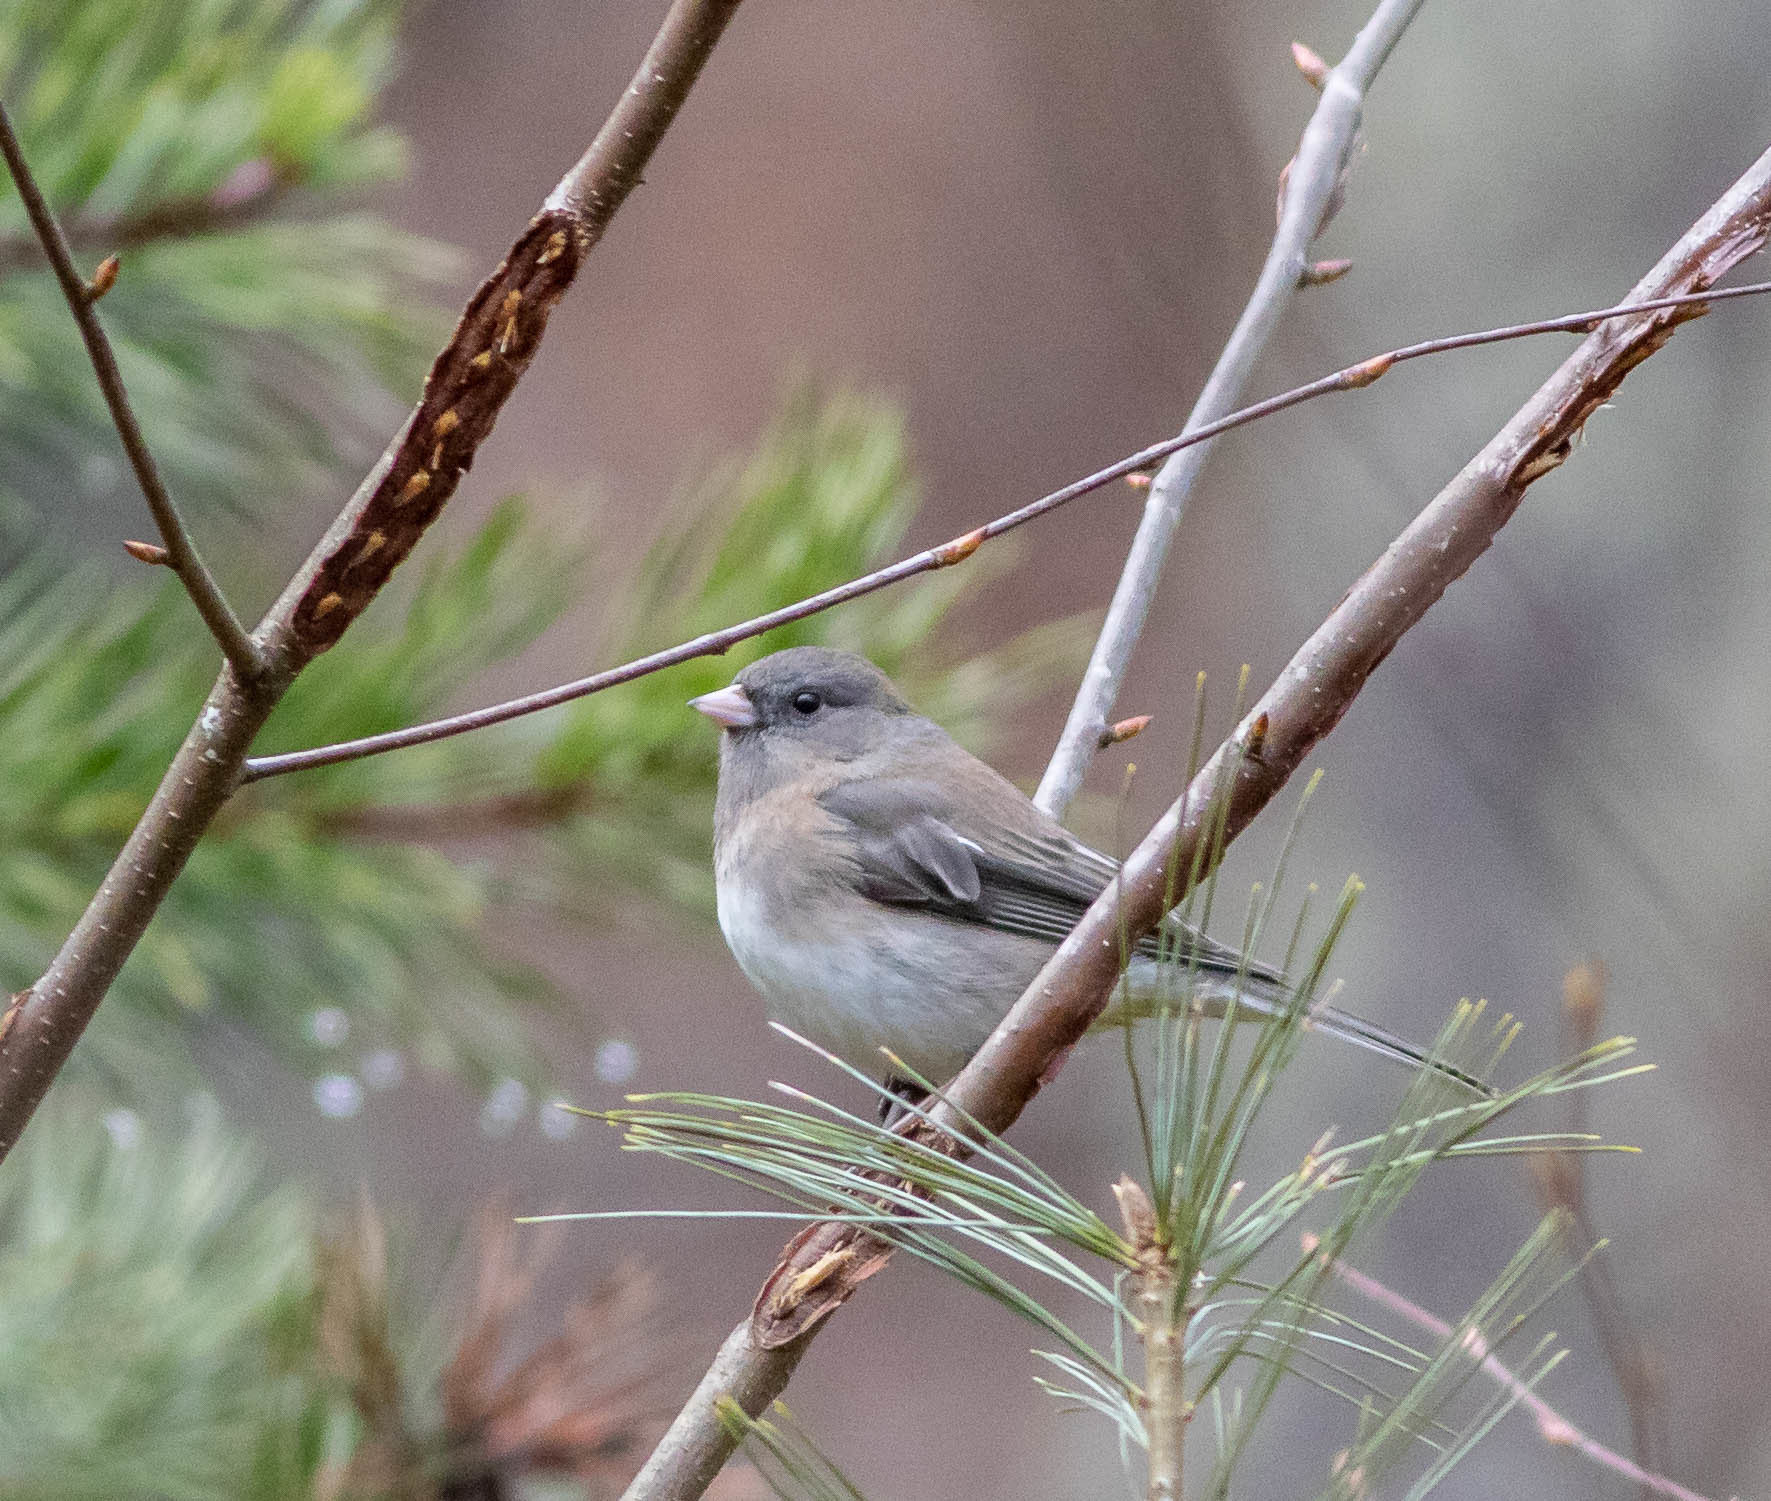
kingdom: Animalia
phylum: Chordata
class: Aves
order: Passeriformes
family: Passerellidae
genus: Junco
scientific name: Junco hyemalis
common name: Dark-eyed junco
